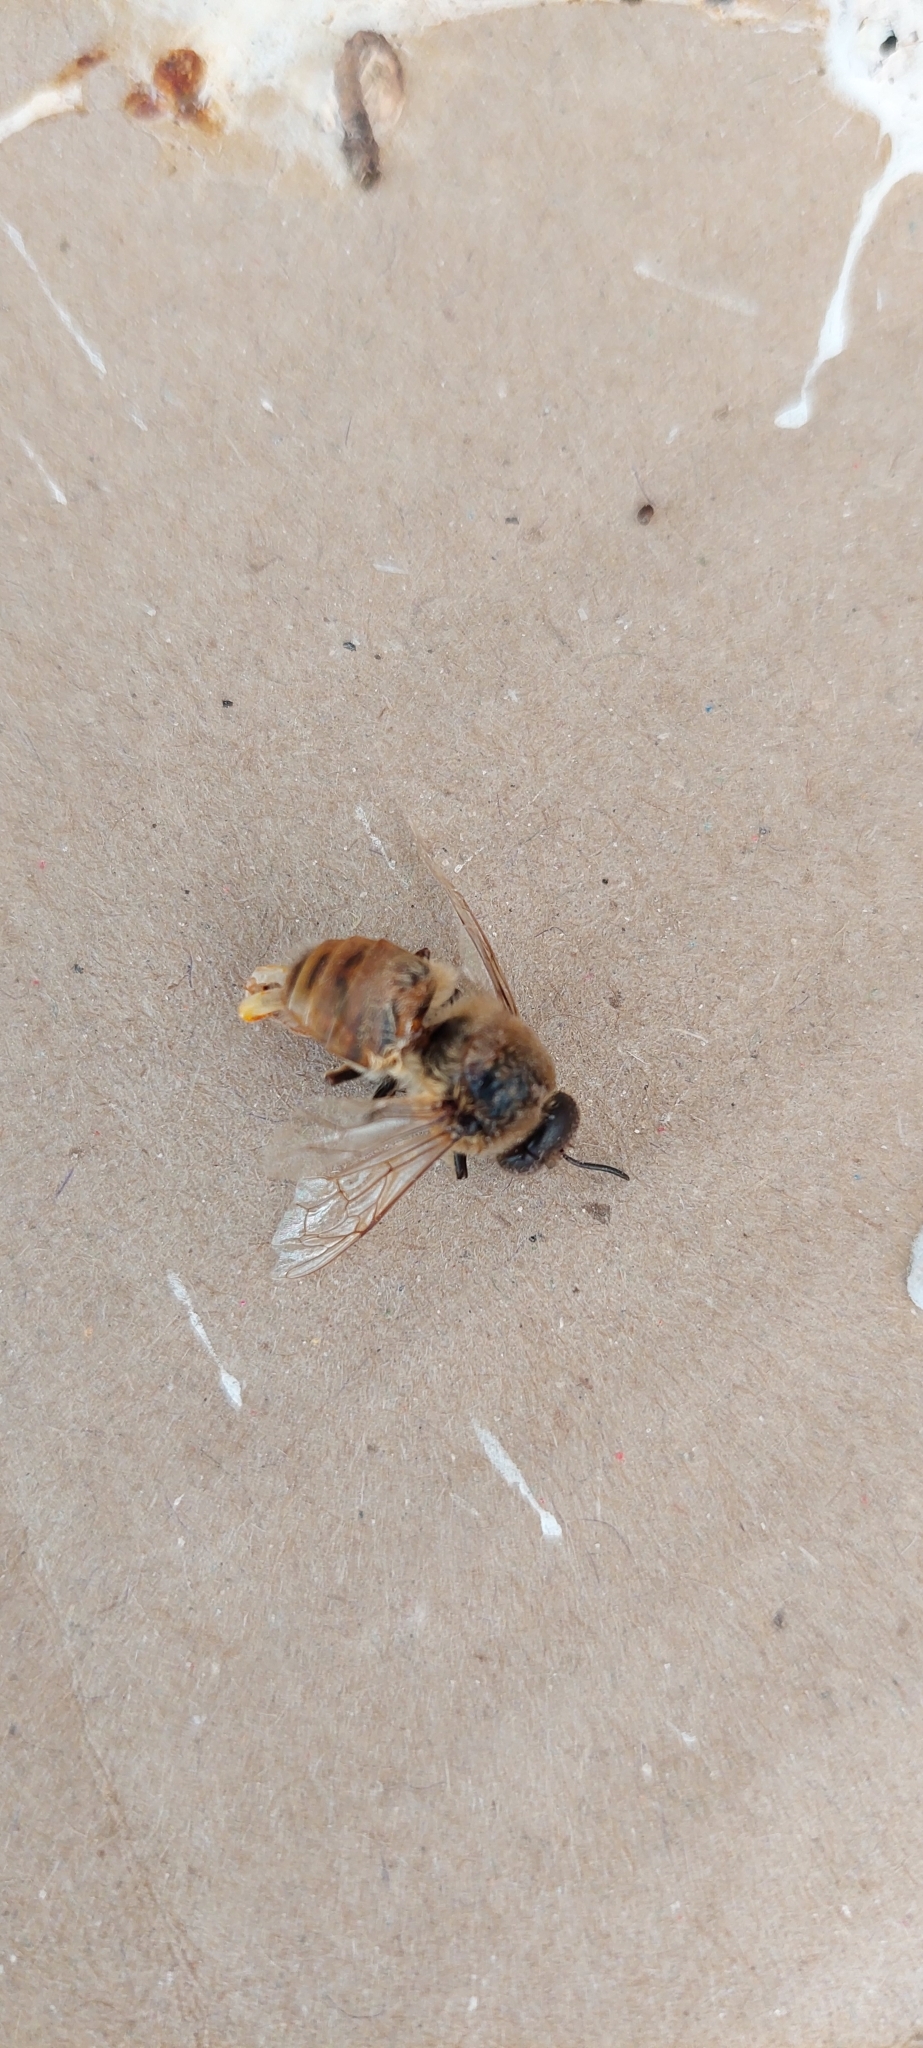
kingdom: Animalia
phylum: Arthropoda
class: Insecta
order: Hymenoptera
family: Apidae
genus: Apis
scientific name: Apis mellifera
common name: Honey bee
